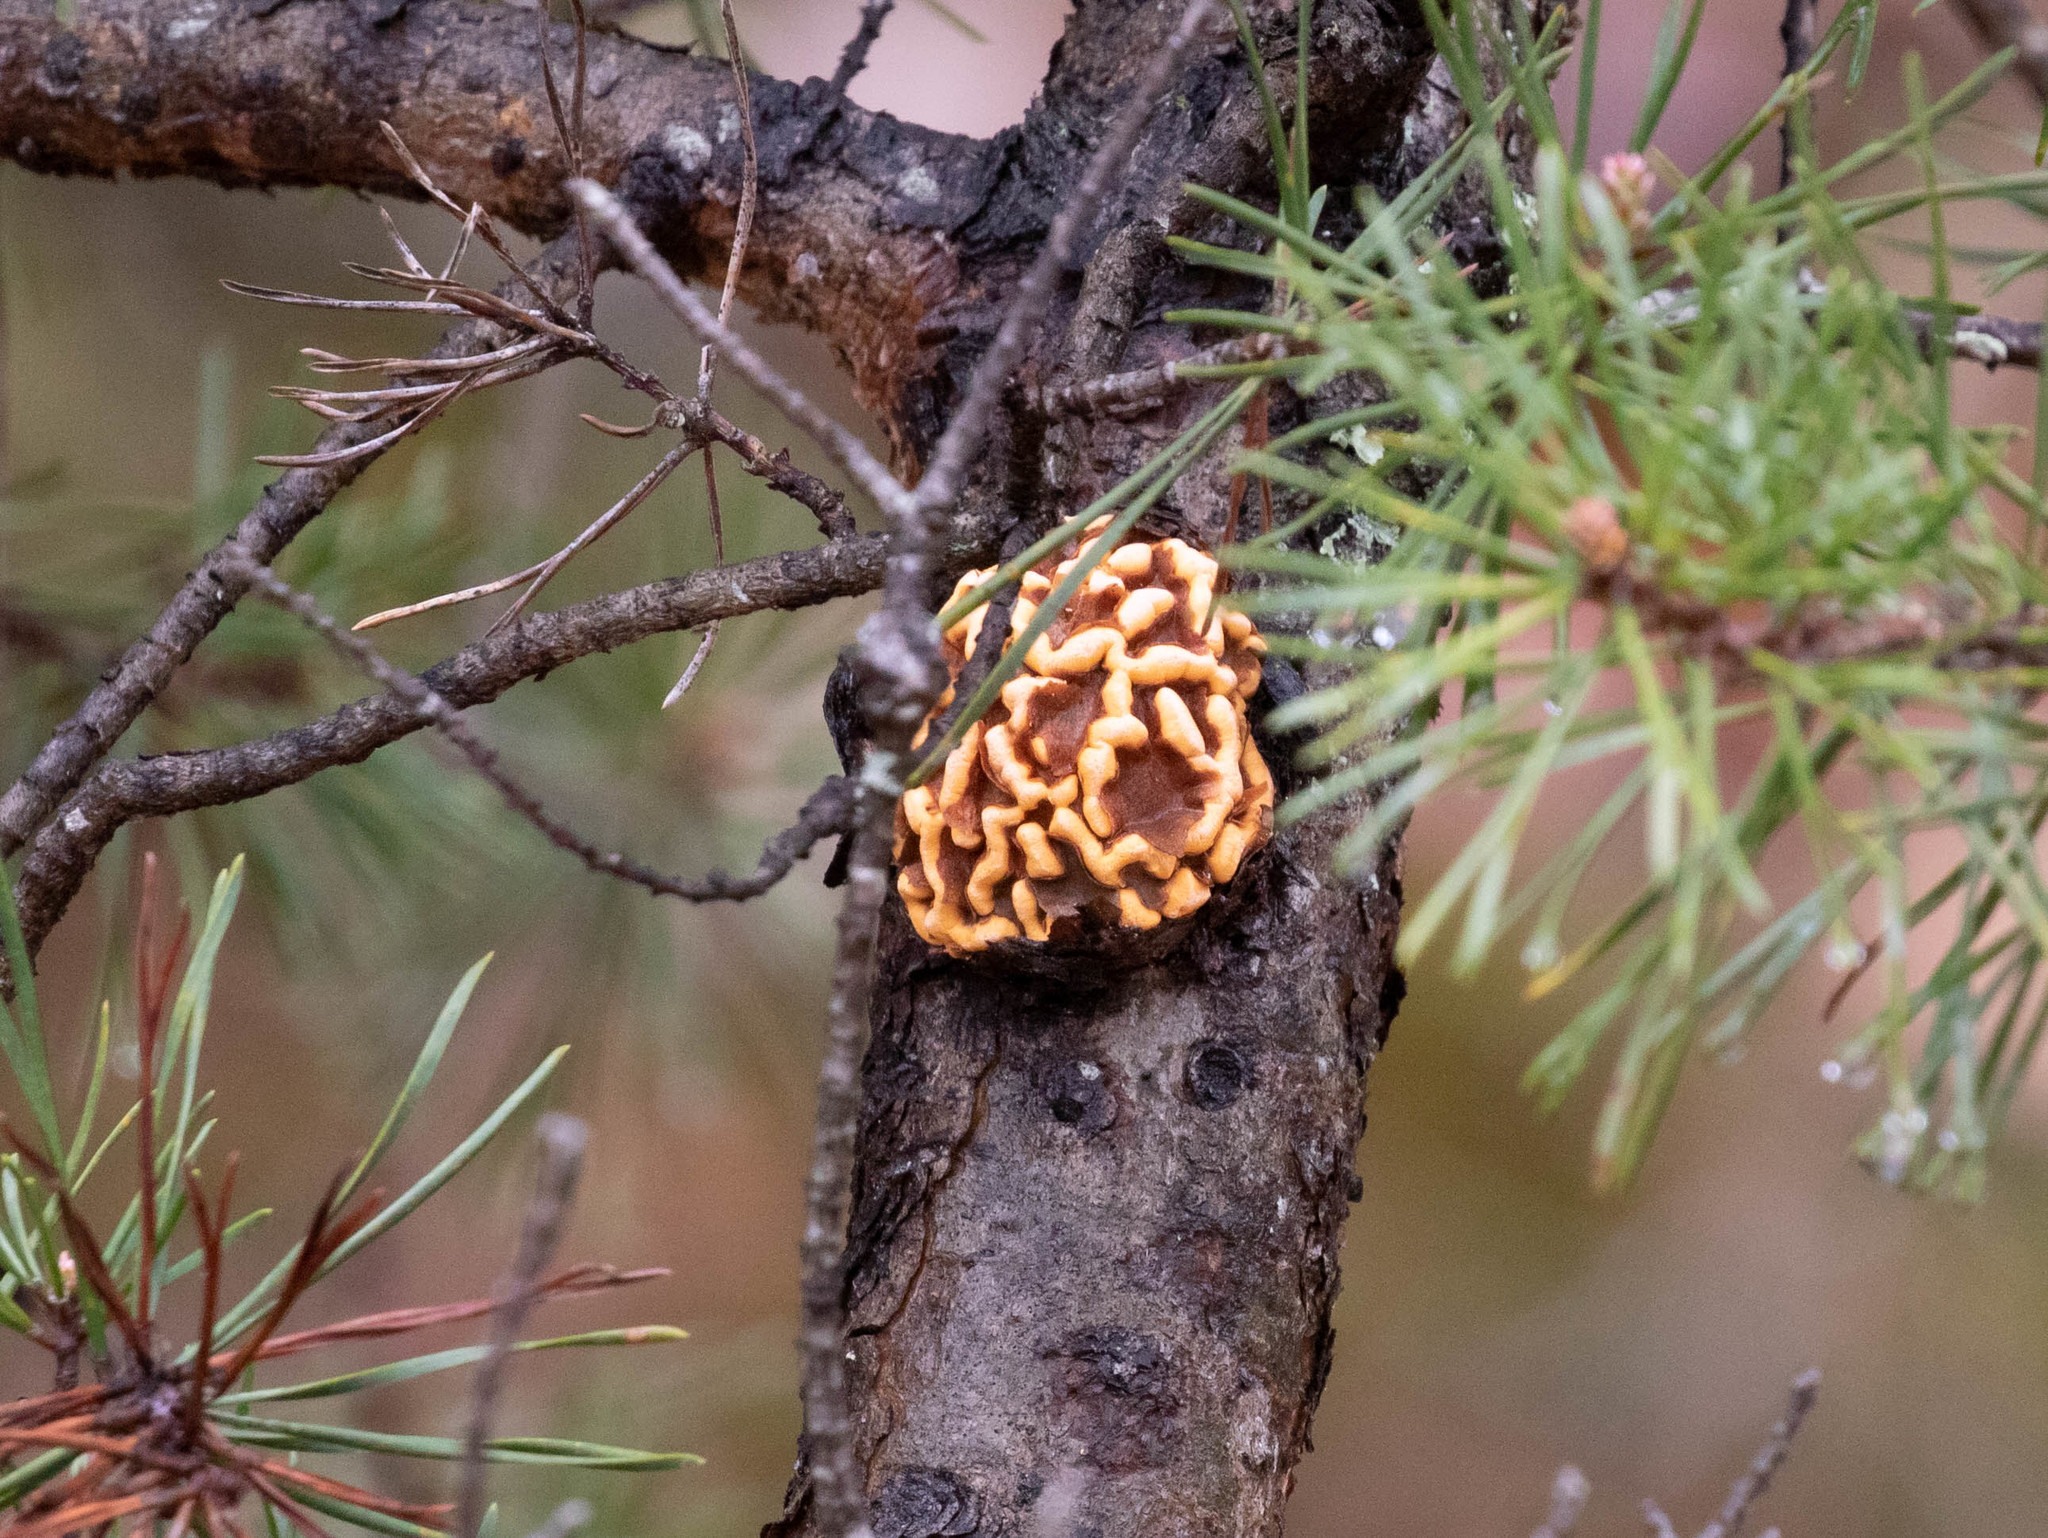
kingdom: Fungi
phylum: Basidiomycota
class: Pucciniomycetes
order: Pucciniales
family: Cronartiaceae
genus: Cronartium
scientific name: Cronartium quercuum
